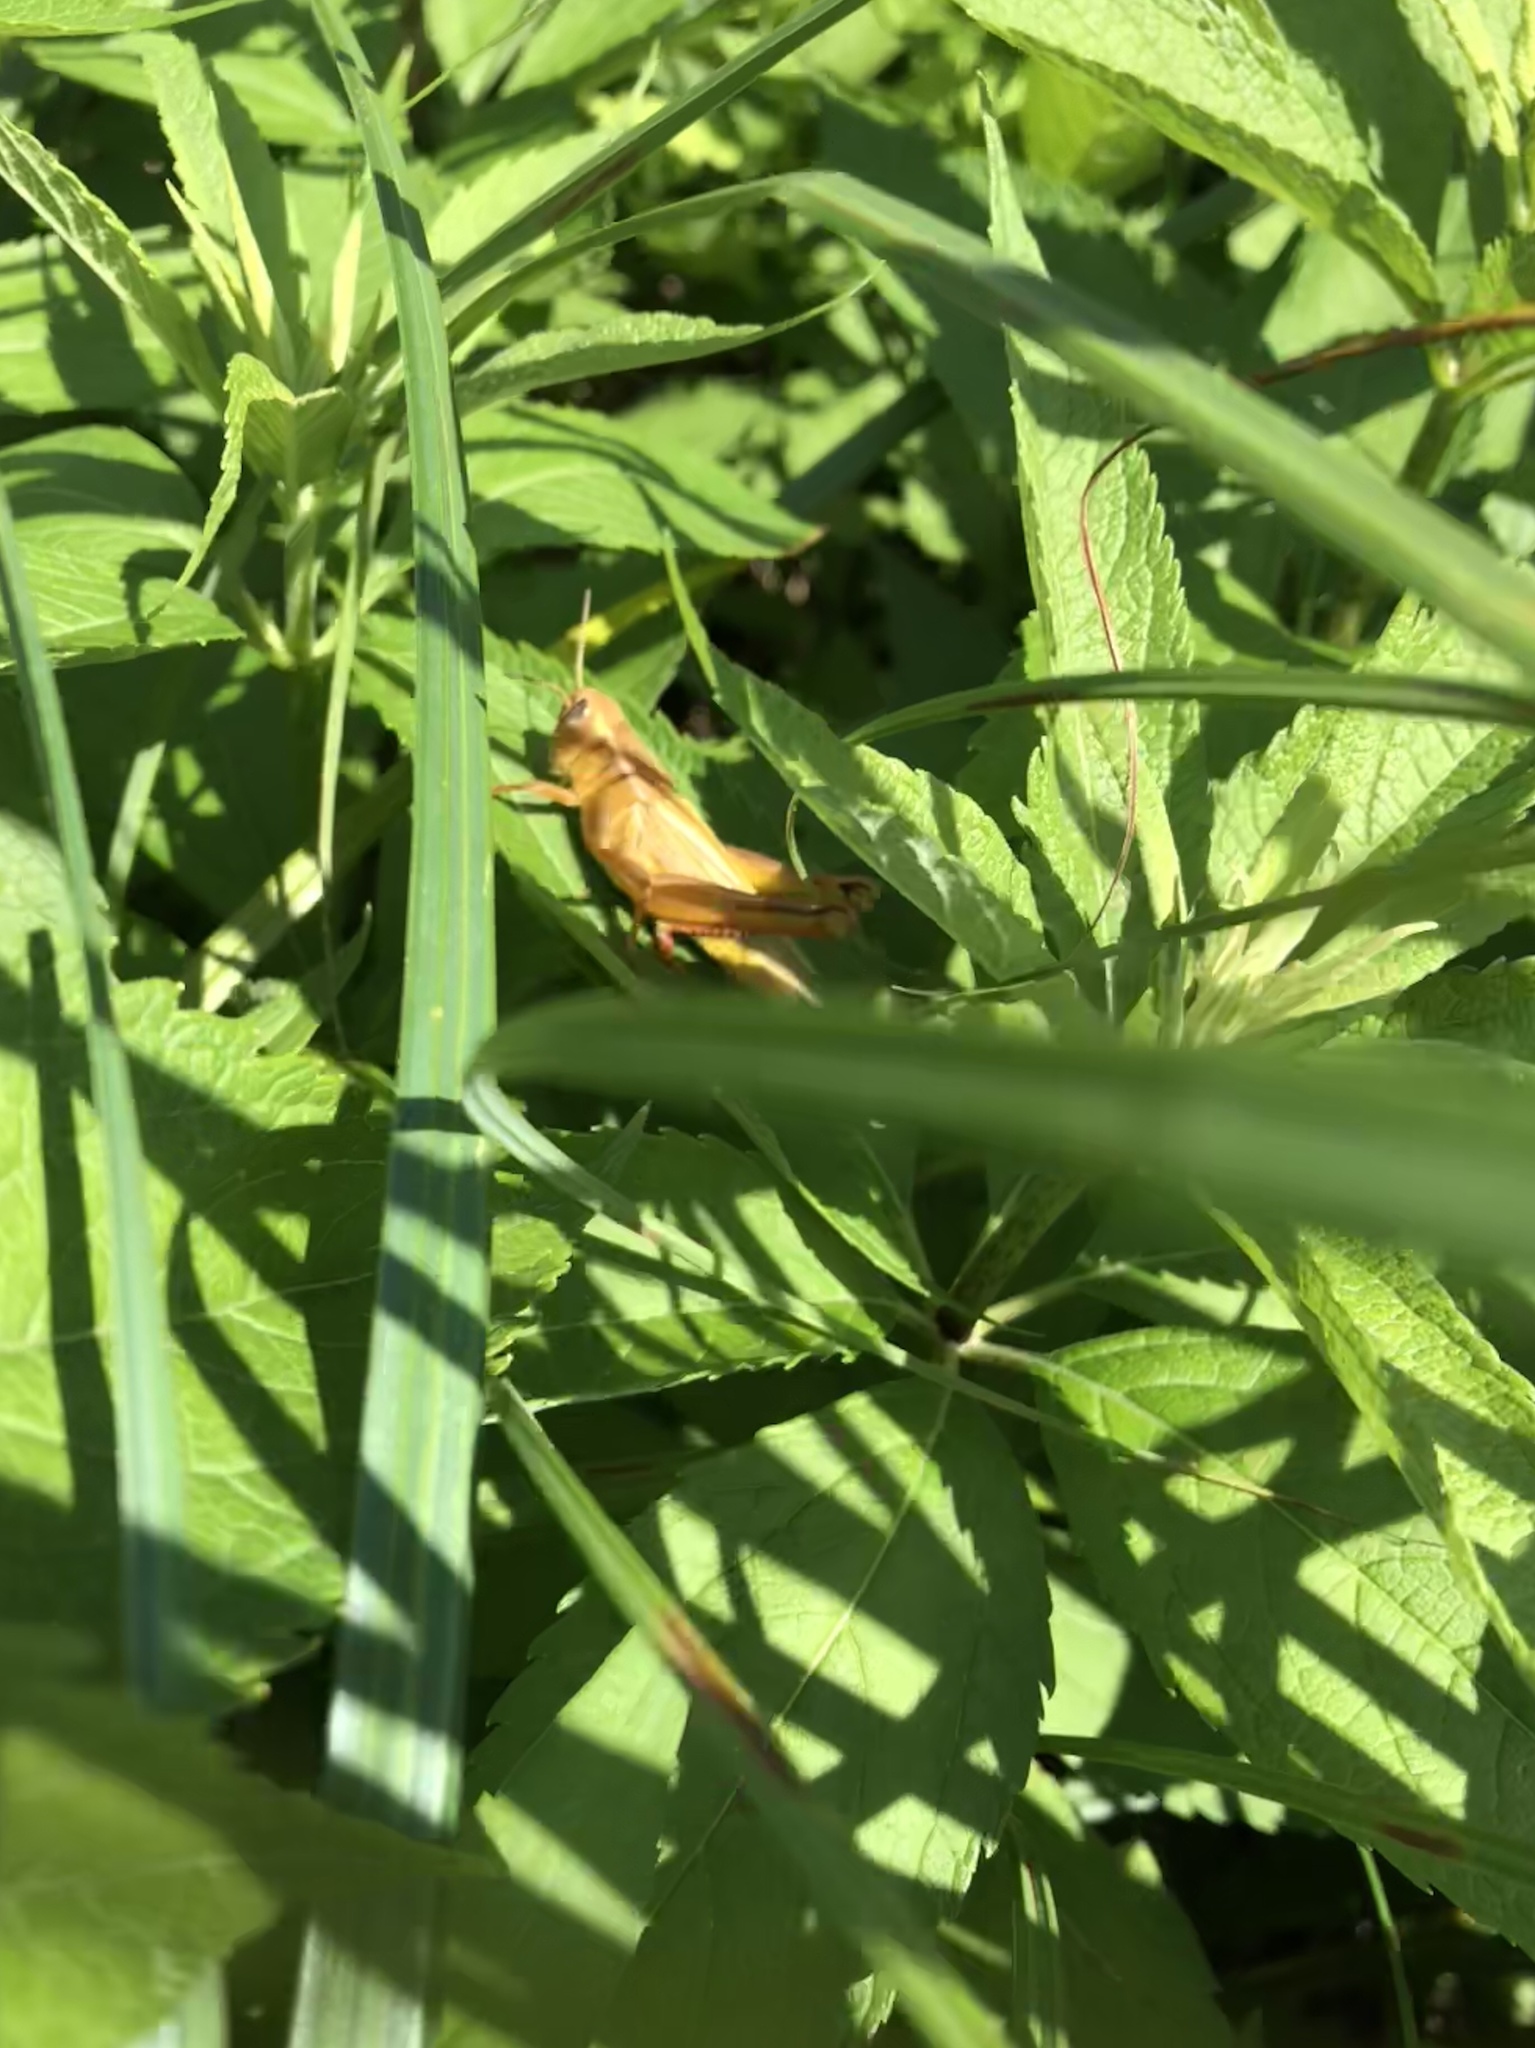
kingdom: Animalia
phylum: Arthropoda
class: Insecta
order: Orthoptera
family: Acrididae
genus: Melanoplus
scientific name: Melanoplus bivittatus
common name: Two-striped grasshopper
